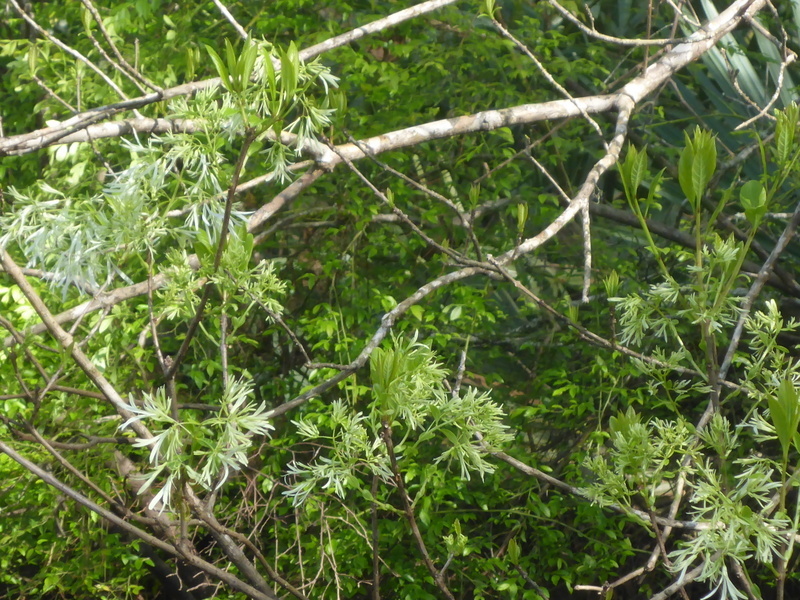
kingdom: Plantae
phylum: Tracheophyta
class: Magnoliopsida
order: Lamiales
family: Oleaceae
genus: Chionanthus
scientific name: Chionanthus virginicus
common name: American fringetree
